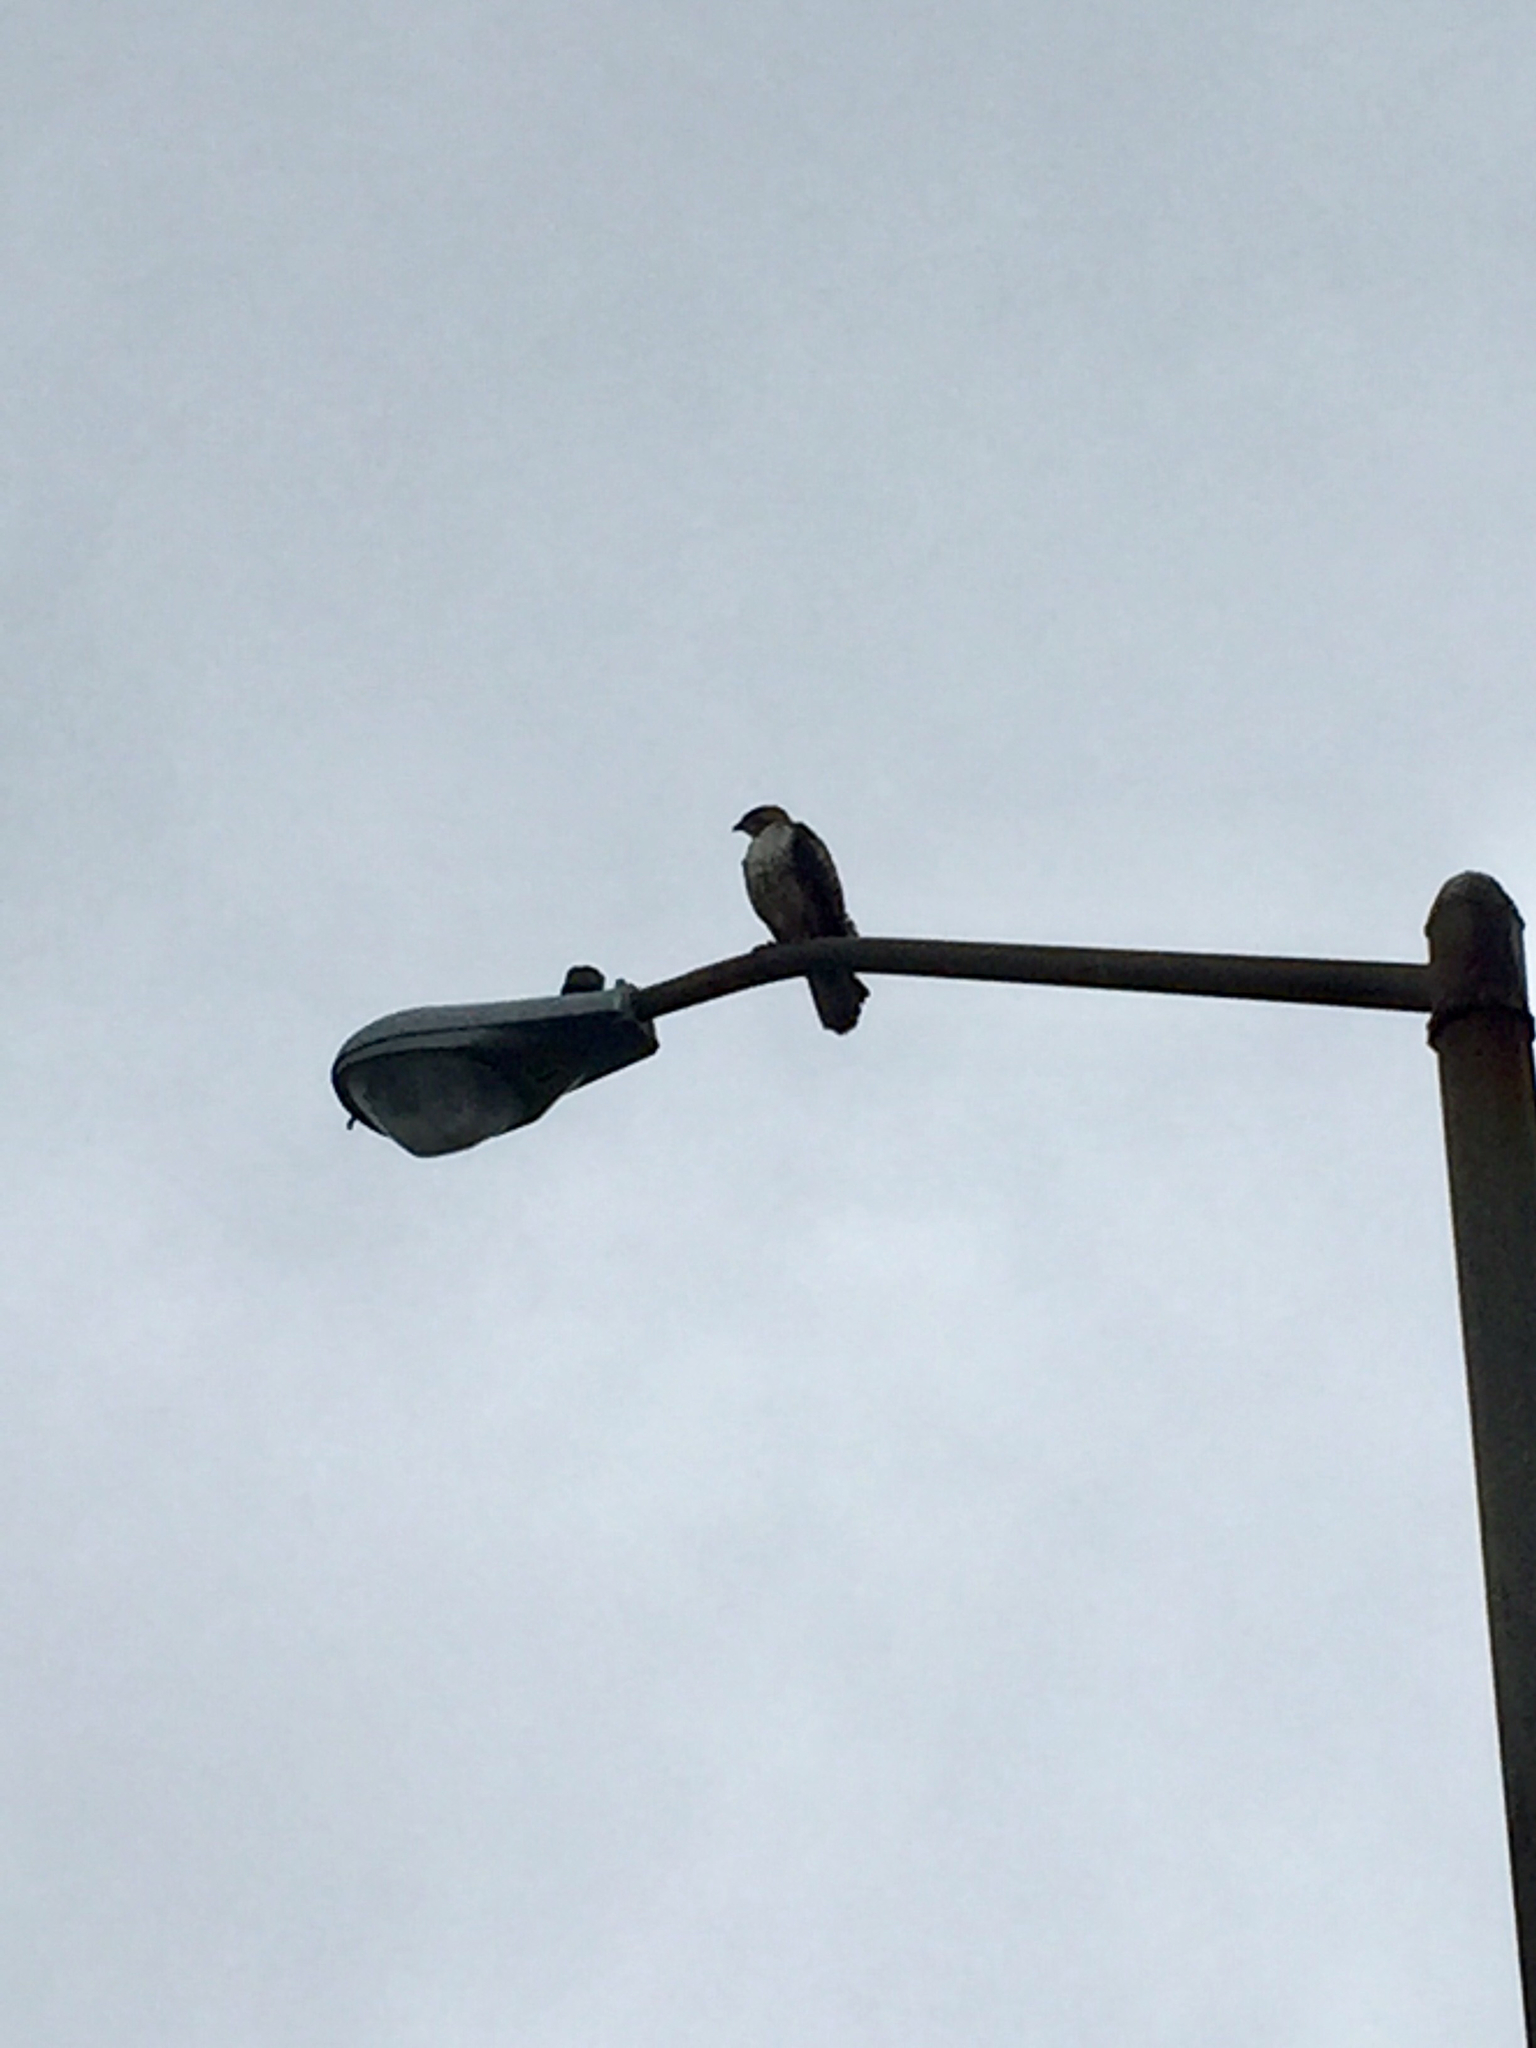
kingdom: Animalia
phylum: Chordata
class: Aves
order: Accipitriformes
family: Accipitridae
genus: Buteo
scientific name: Buteo jamaicensis
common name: Red-tailed hawk
